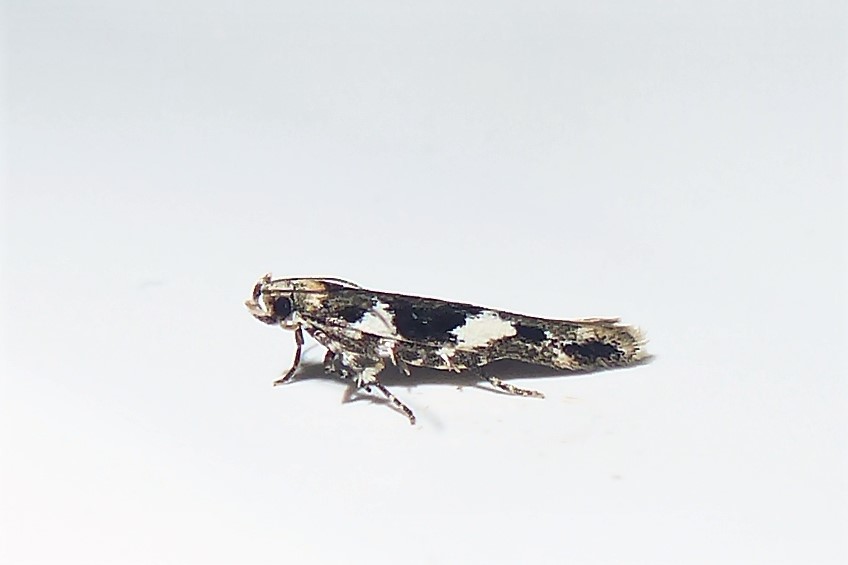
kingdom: Animalia
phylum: Arthropoda
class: Insecta
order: Lepidoptera
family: Cosmopterigidae
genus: Pyroderces
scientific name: Pyroderces deamatella
